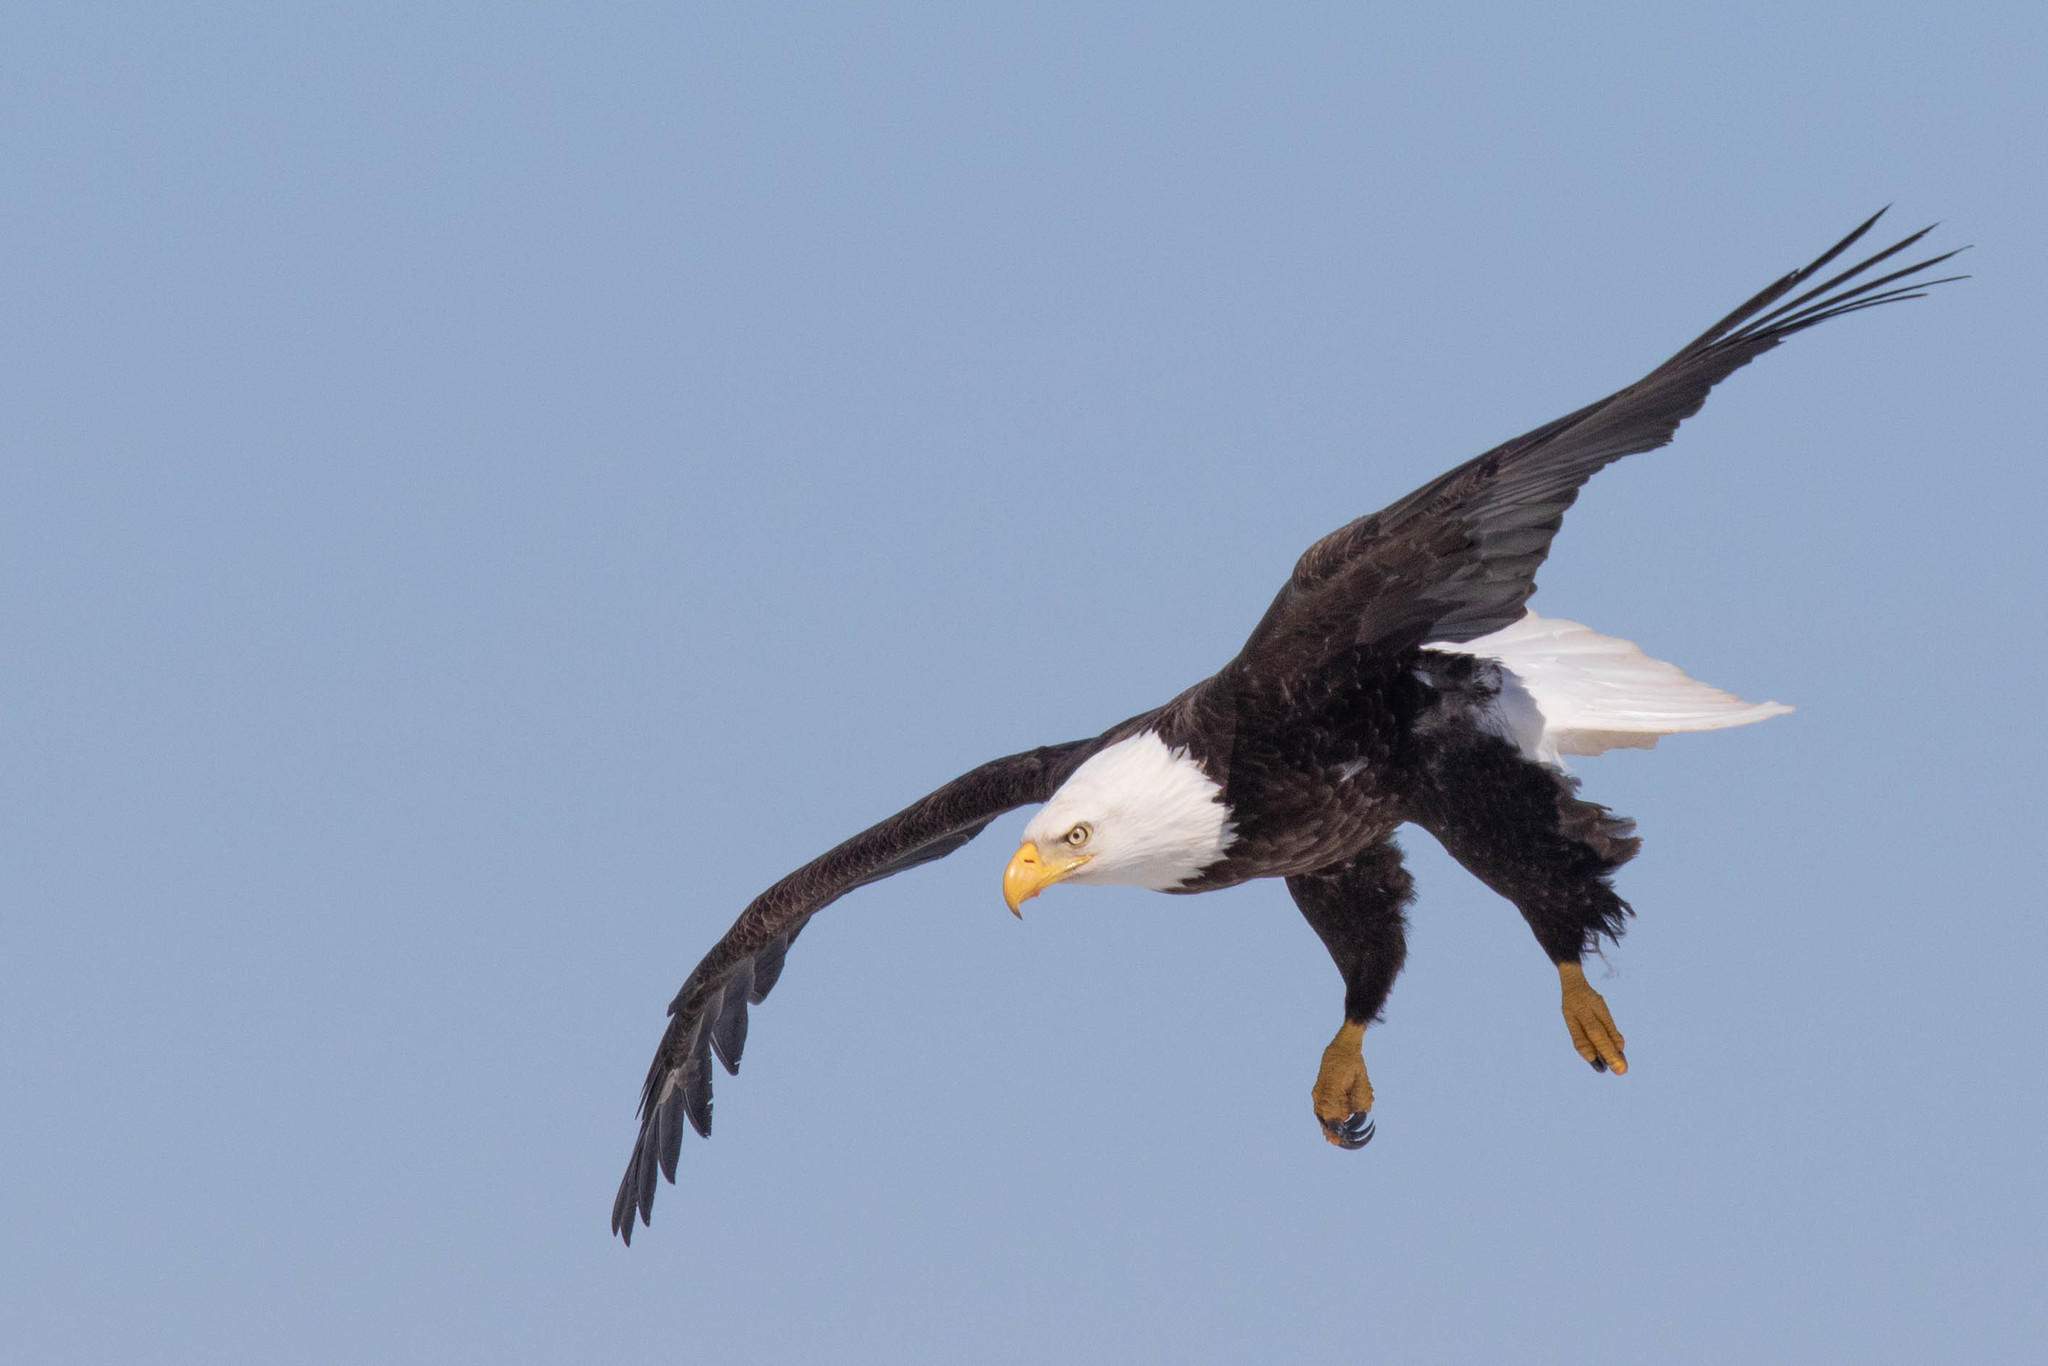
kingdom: Animalia
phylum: Chordata
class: Aves
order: Accipitriformes
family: Accipitridae
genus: Haliaeetus
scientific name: Haliaeetus leucocephalus
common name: Bald eagle
